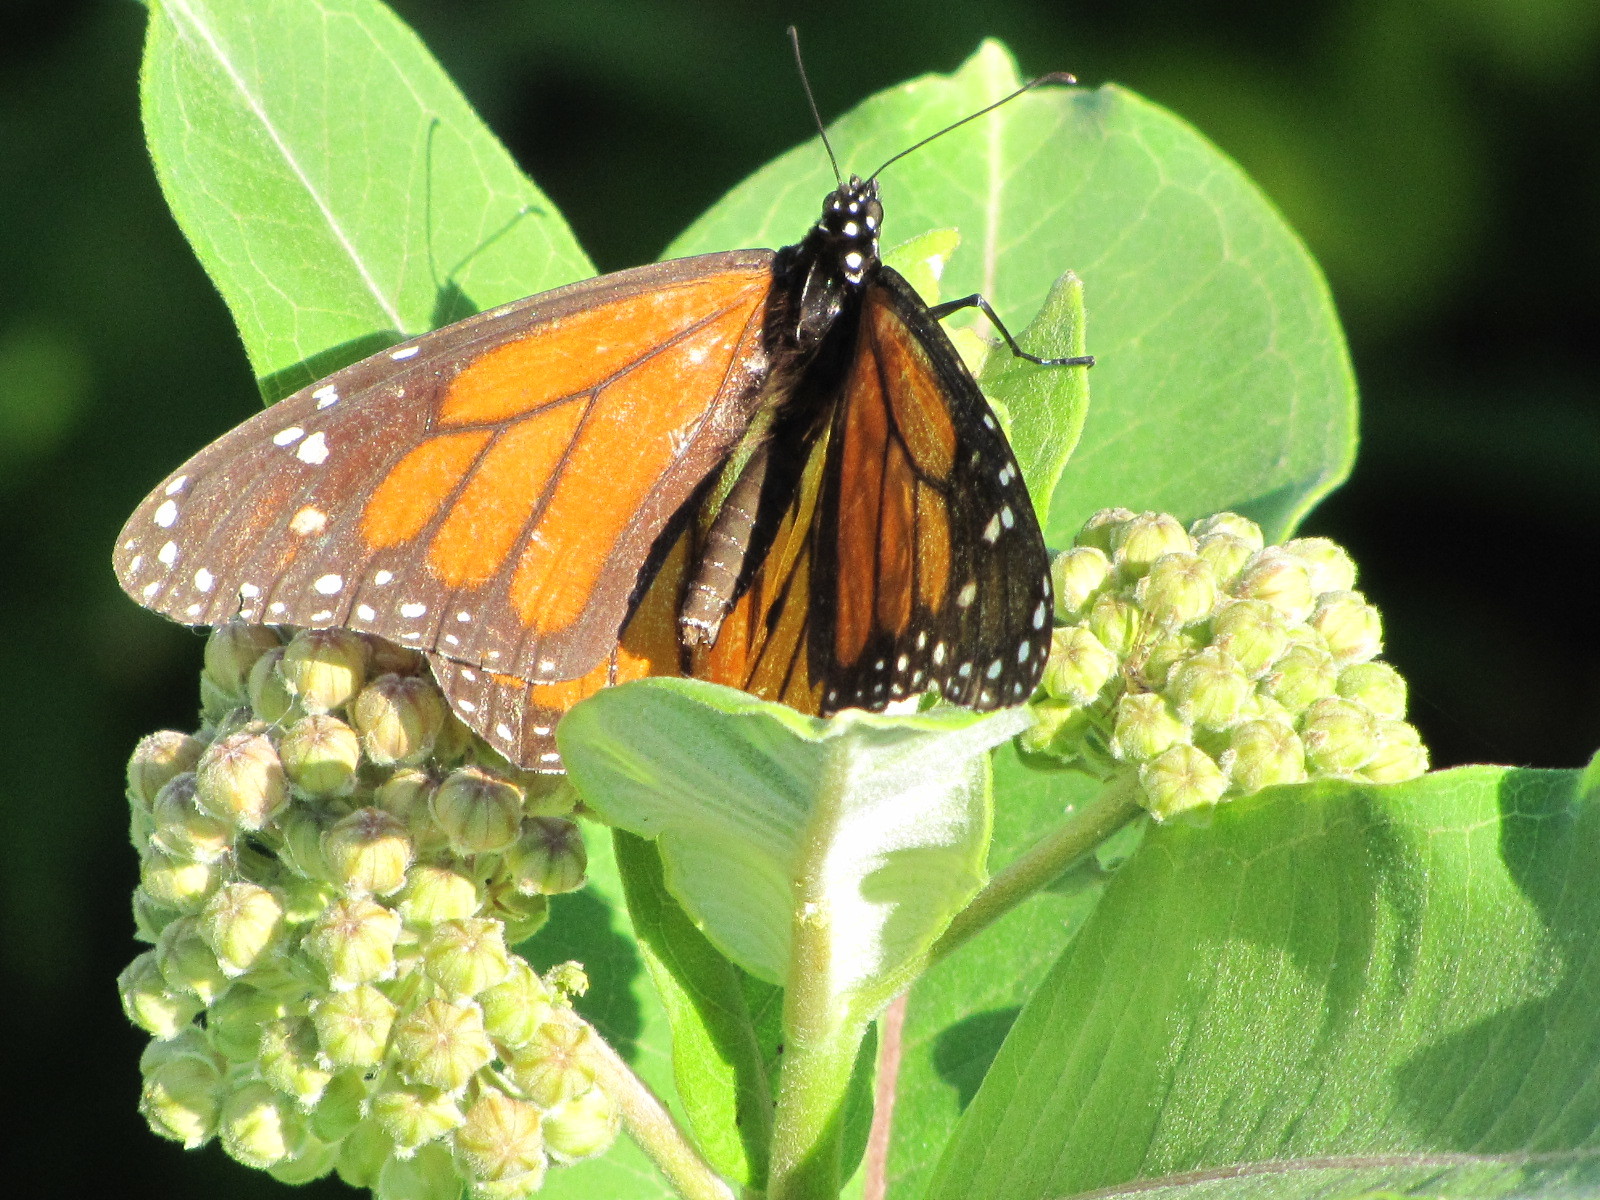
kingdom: Animalia
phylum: Arthropoda
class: Insecta
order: Lepidoptera
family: Nymphalidae
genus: Danaus
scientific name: Danaus plexippus
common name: Monarch
